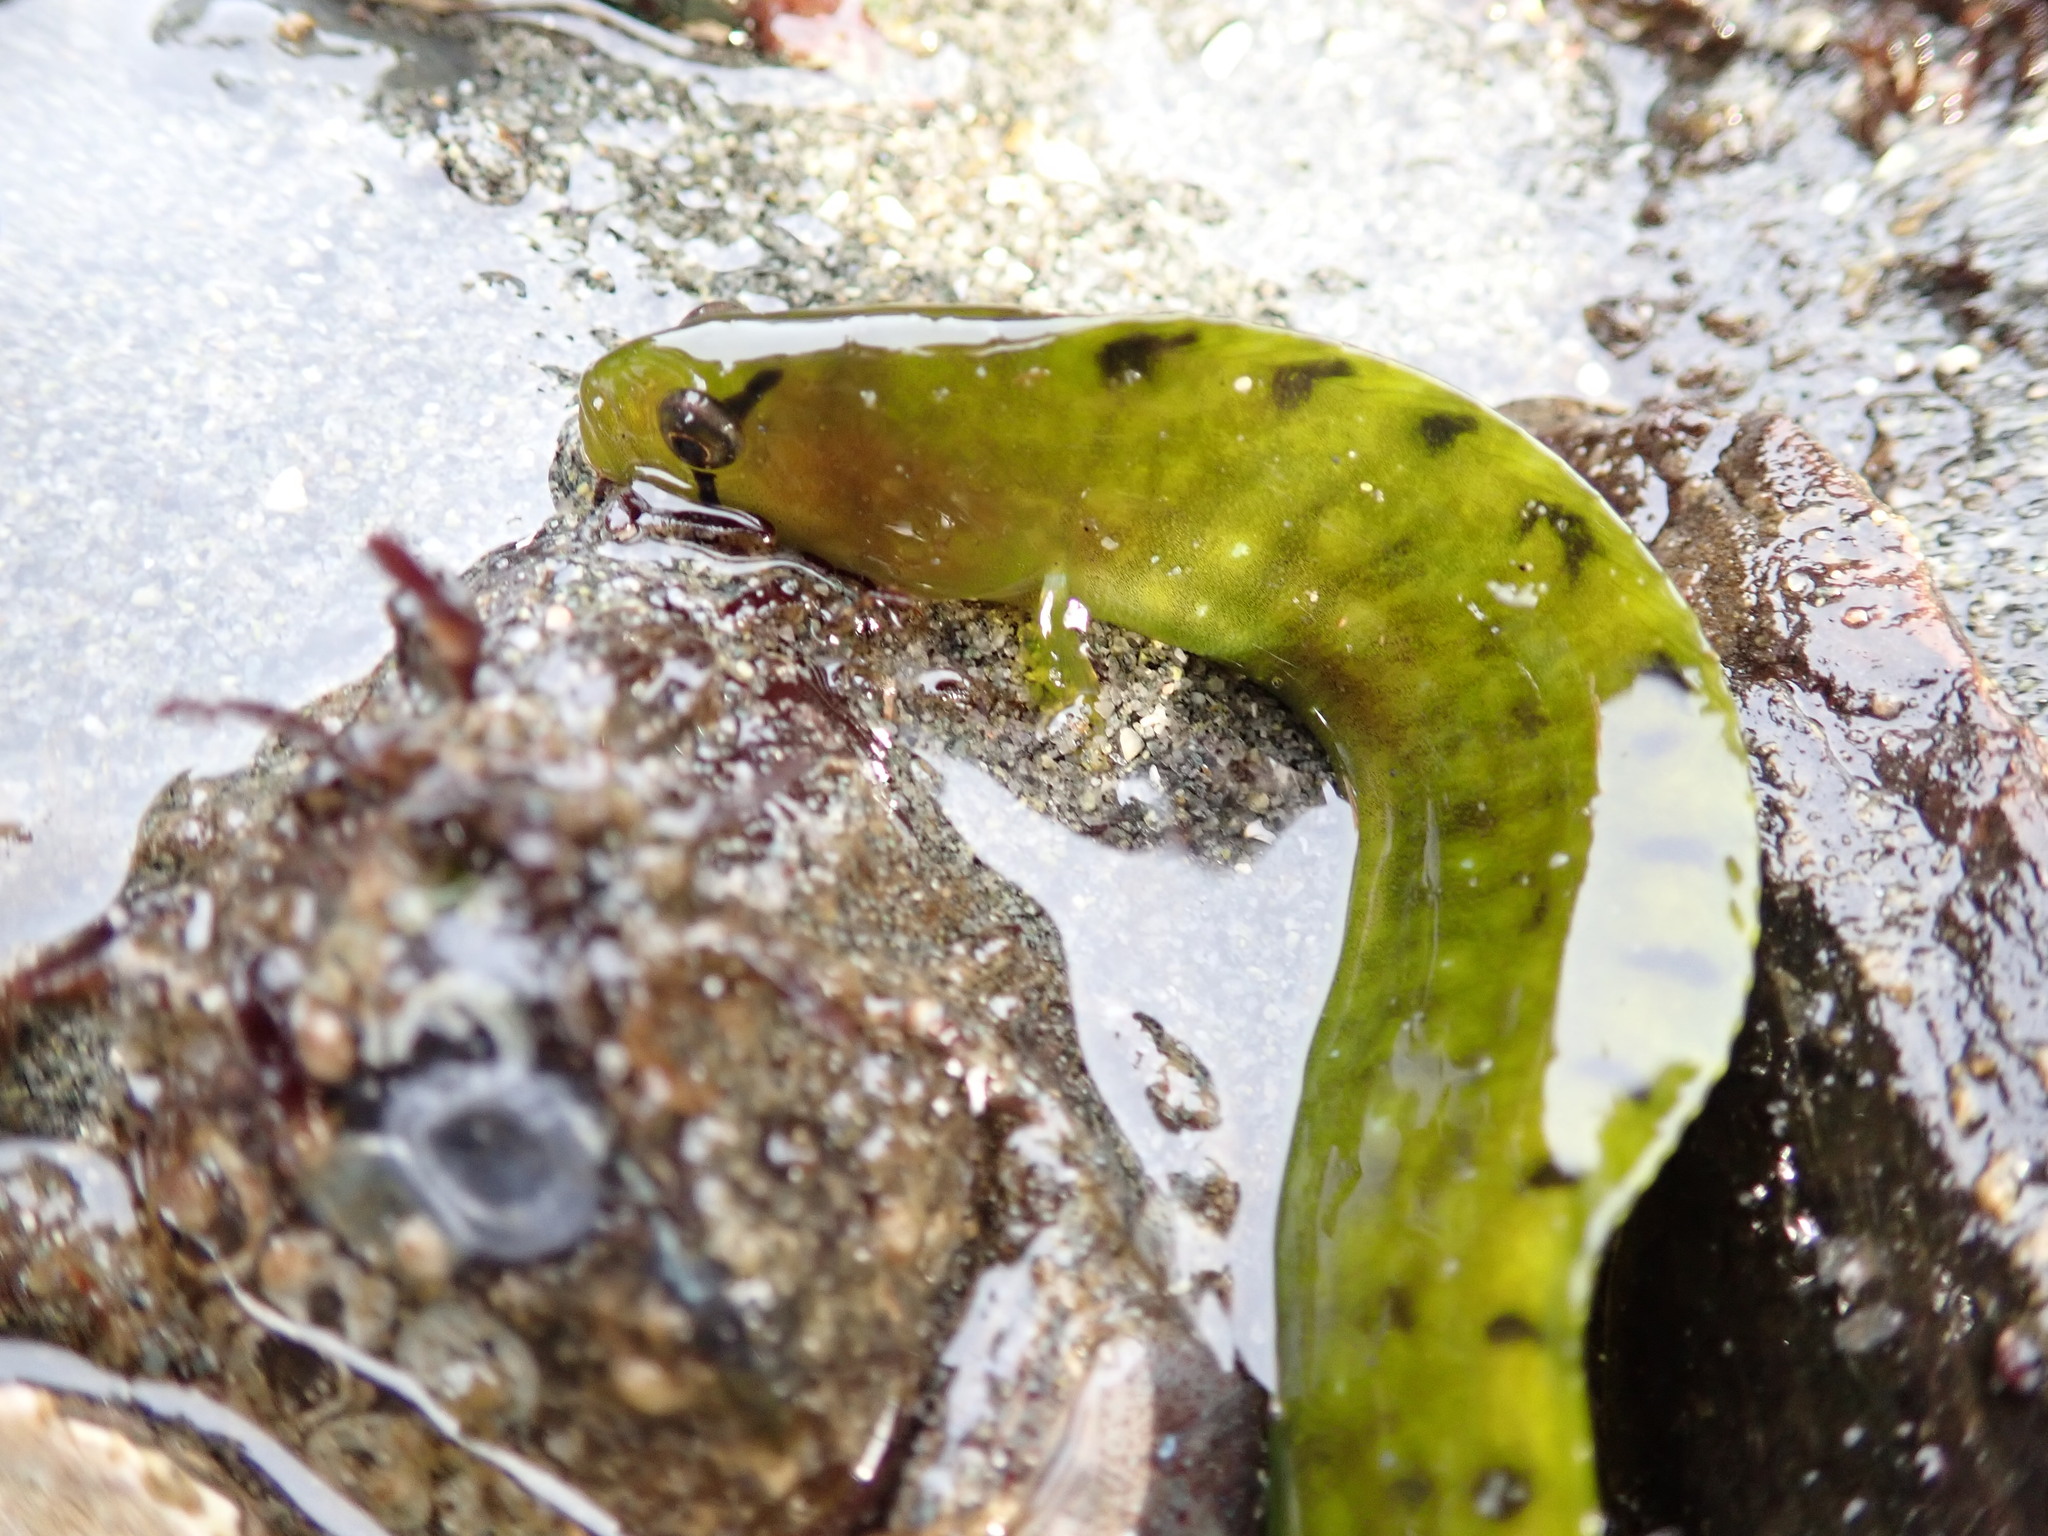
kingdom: Animalia
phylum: Chordata
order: Perciformes
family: Pholidae
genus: Apodichthys
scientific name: Apodichthys flavidus
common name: Penpoint gunnel
